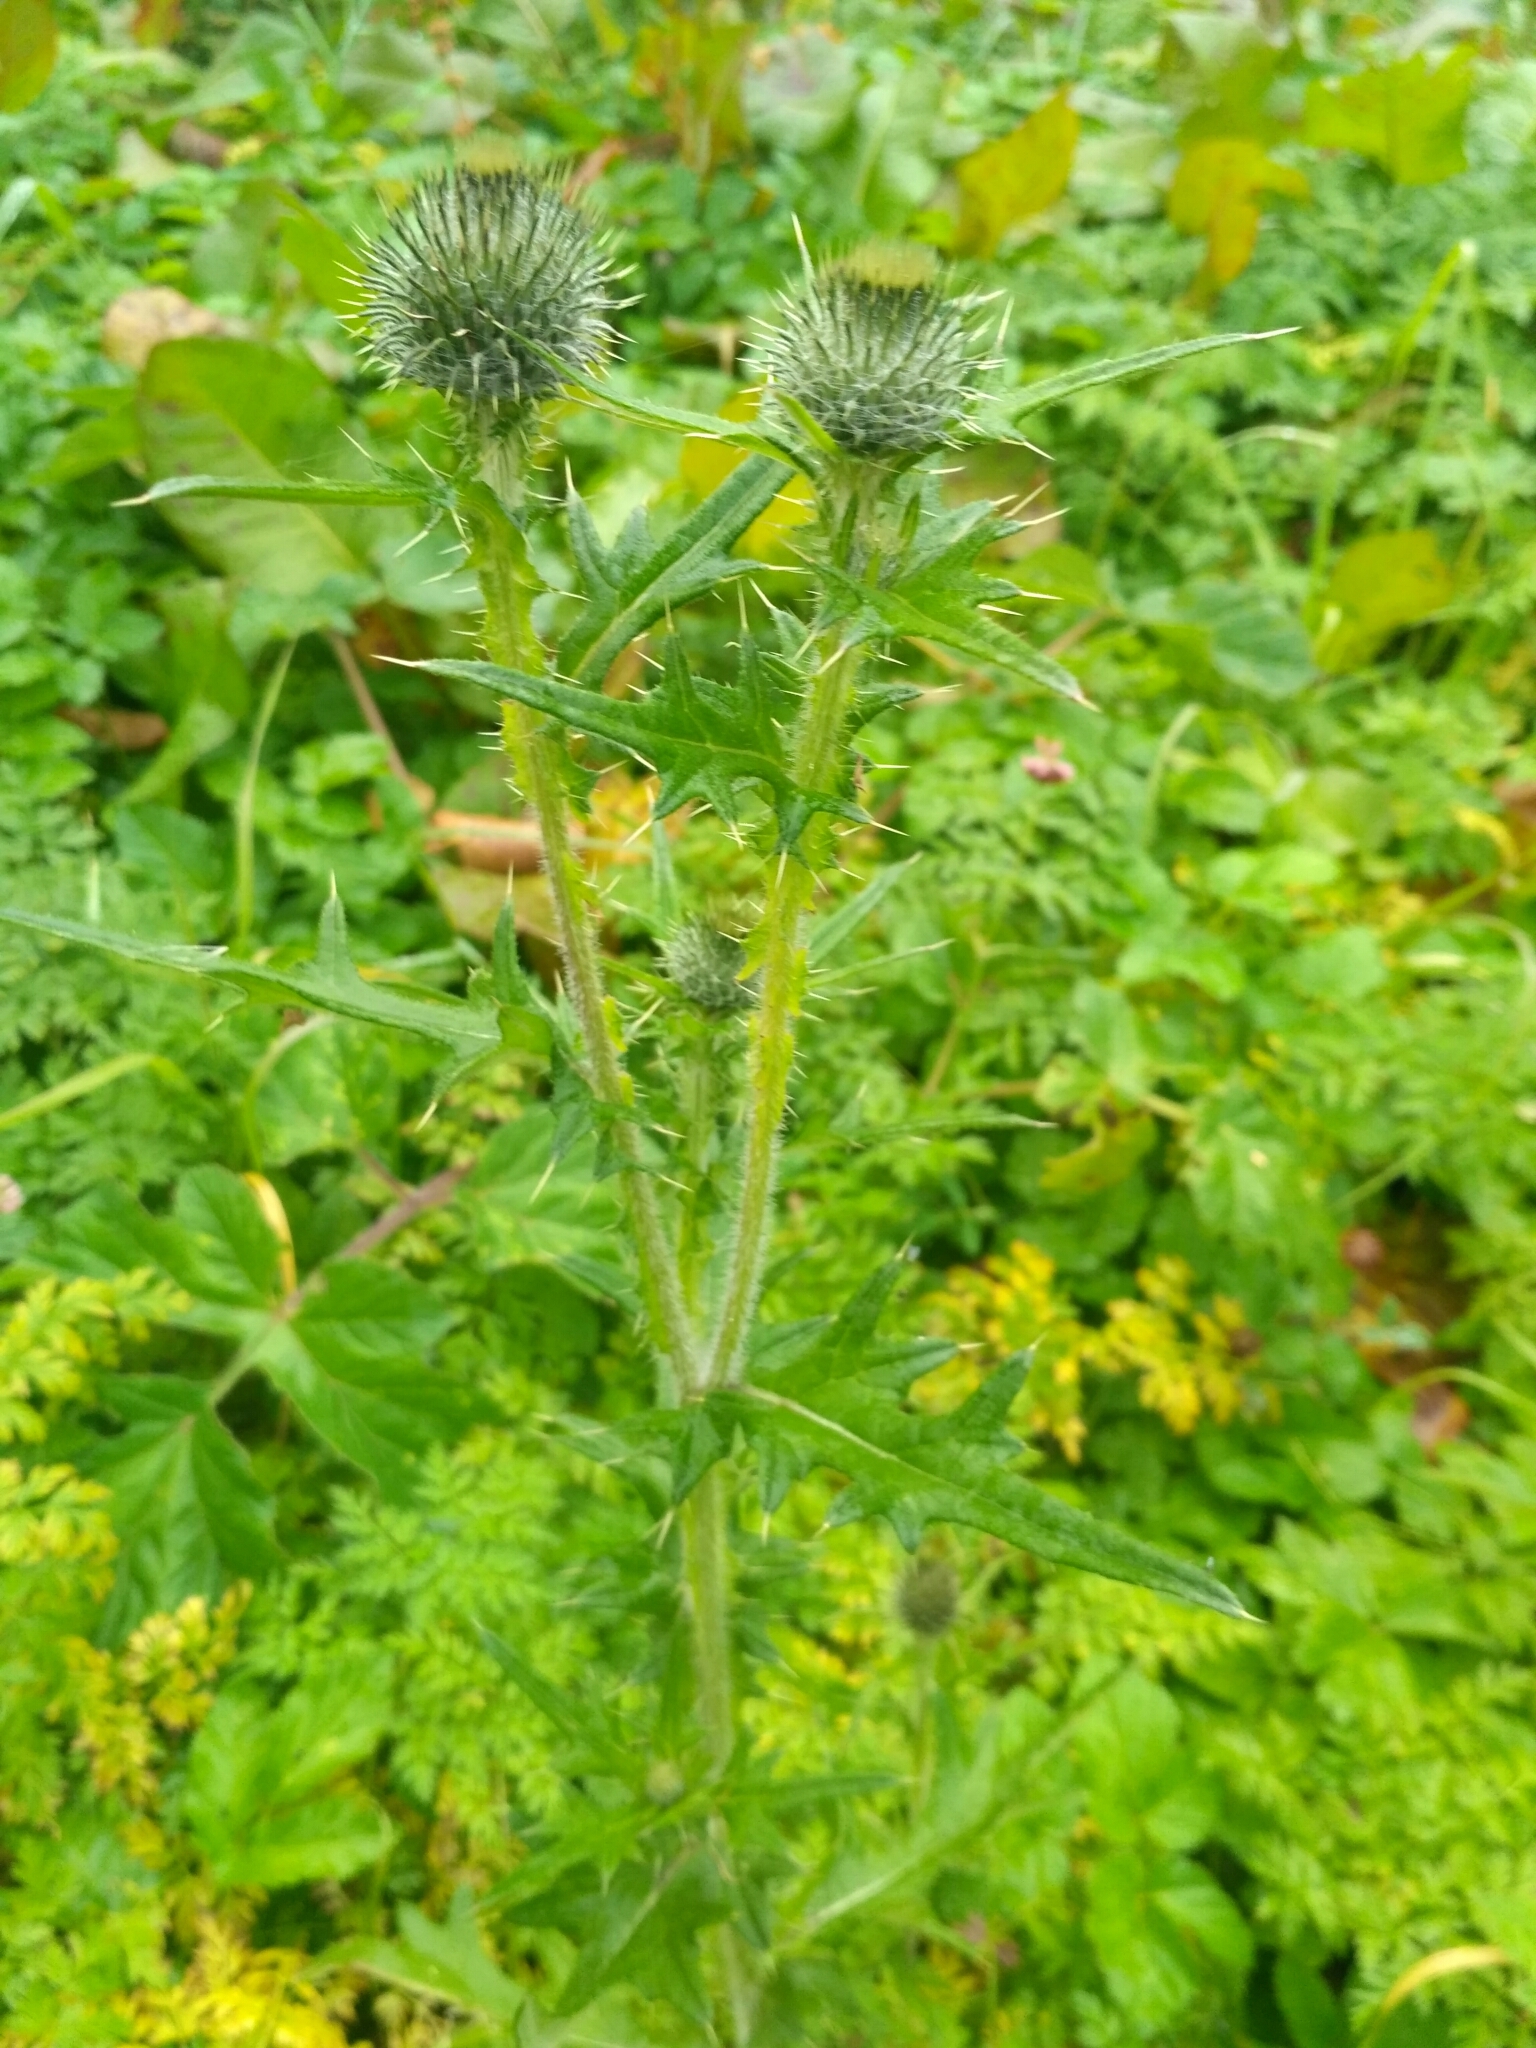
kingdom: Plantae
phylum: Tracheophyta
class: Magnoliopsida
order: Asterales
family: Asteraceae
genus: Cirsium
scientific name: Cirsium vulgare
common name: Bull thistle
